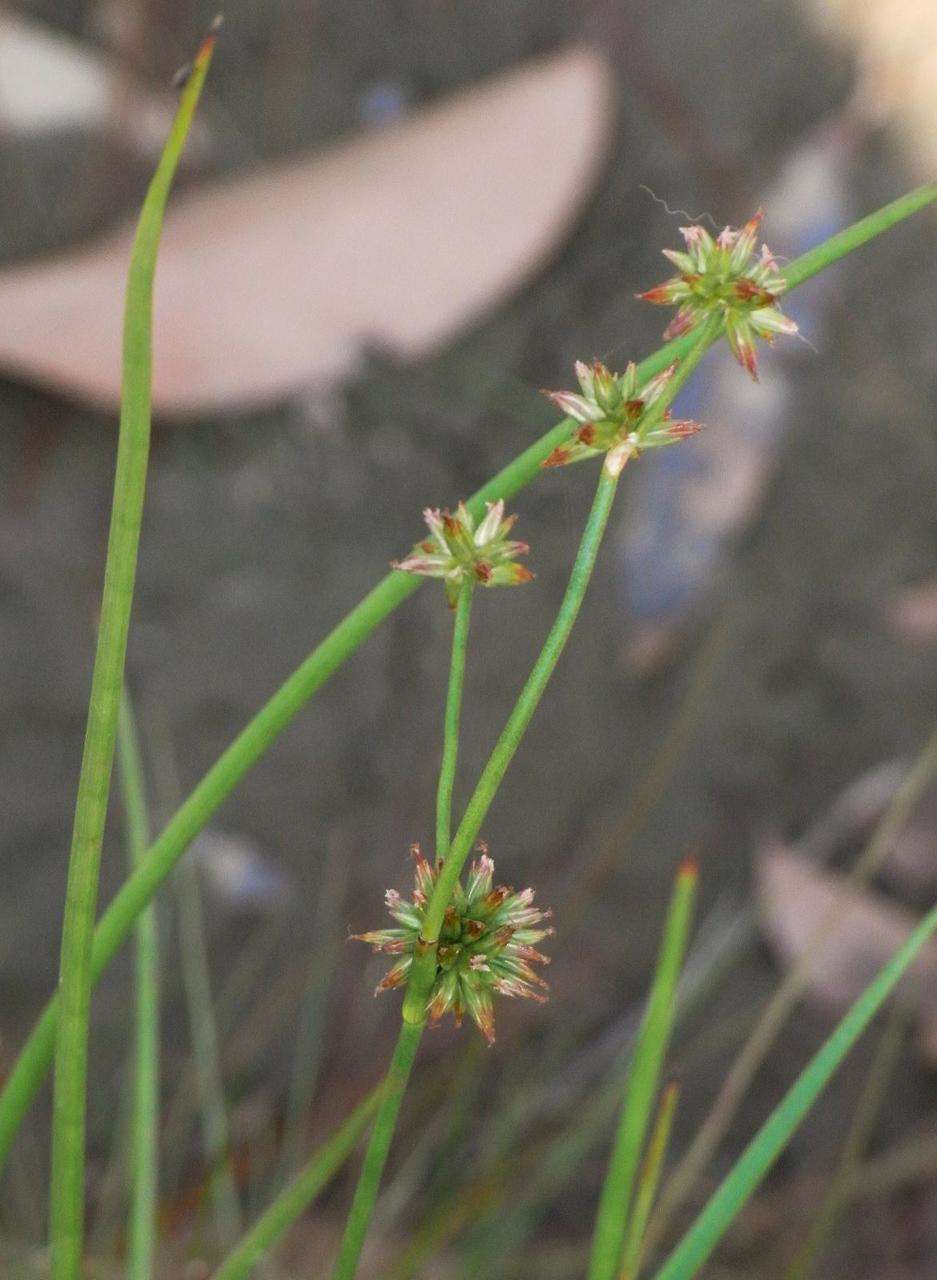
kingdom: Plantae
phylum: Tracheophyta
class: Liliopsida
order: Poales
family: Cyperaceae
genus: Isolepis
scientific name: Isolepis prolifera
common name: Proliferating bulrush
